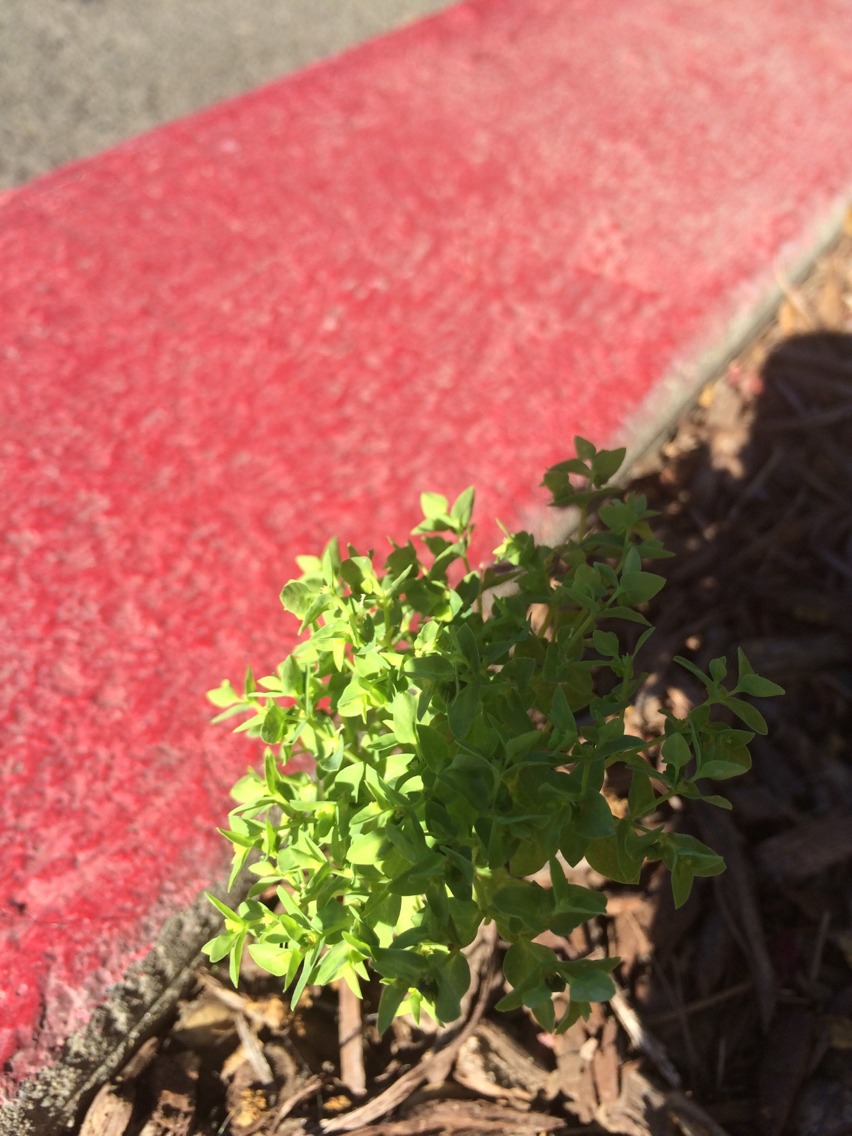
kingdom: Plantae
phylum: Tracheophyta
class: Magnoliopsida
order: Malpighiales
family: Euphorbiaceae
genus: Euphorbia
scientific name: Euphorbia peplus
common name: Petty spurge
